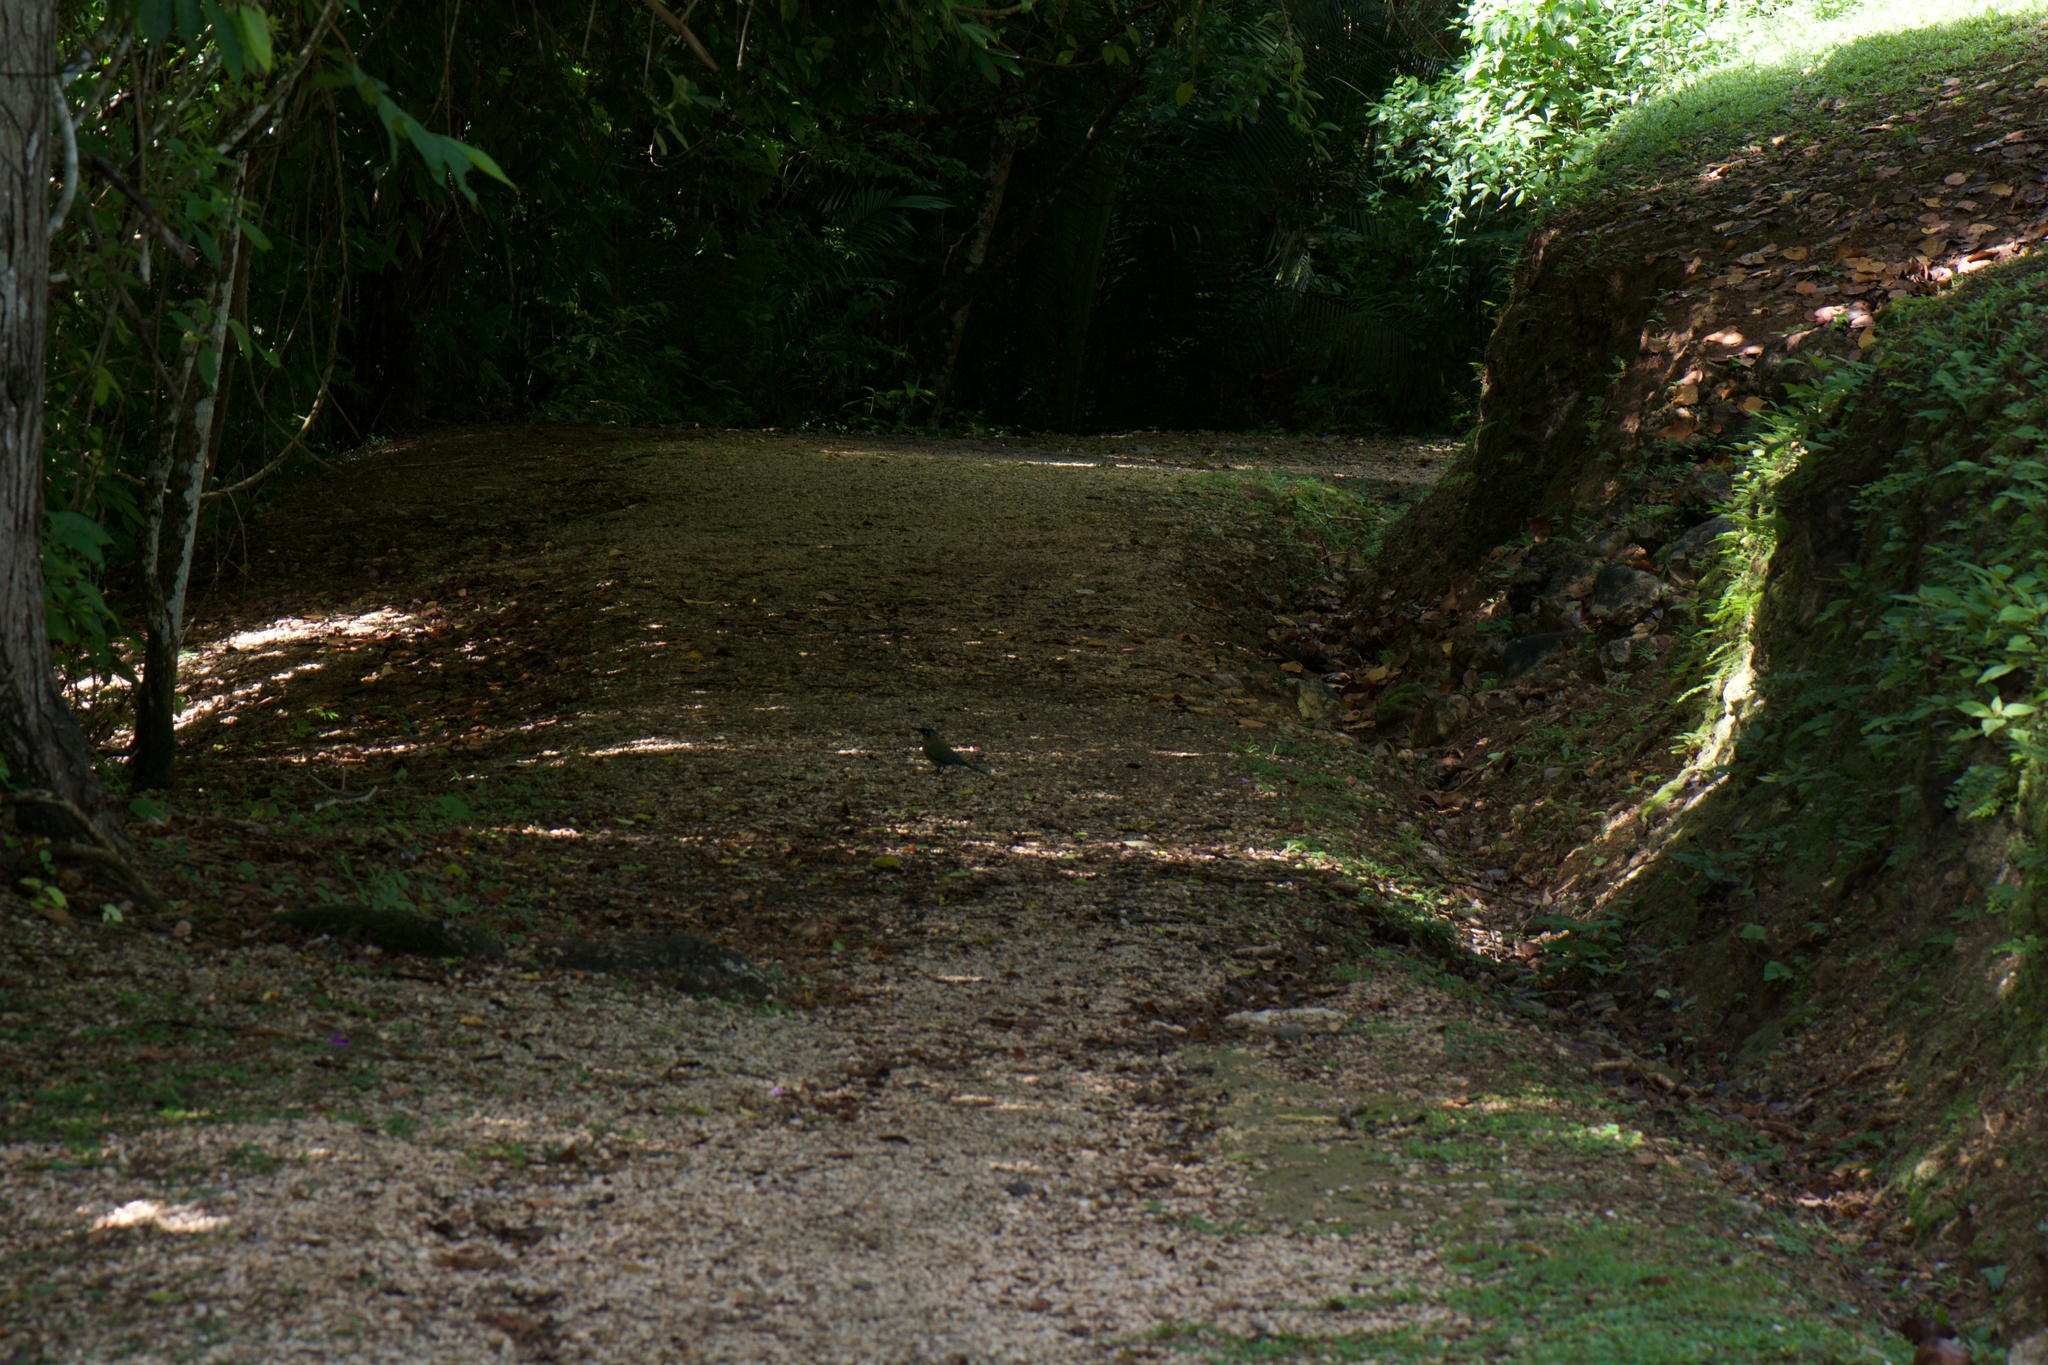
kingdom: Animalia
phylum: Chordata
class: Aves
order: Coraciiformes
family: Momotidae
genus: Momotus
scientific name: Momotus lessonii
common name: Lesson's motmot
